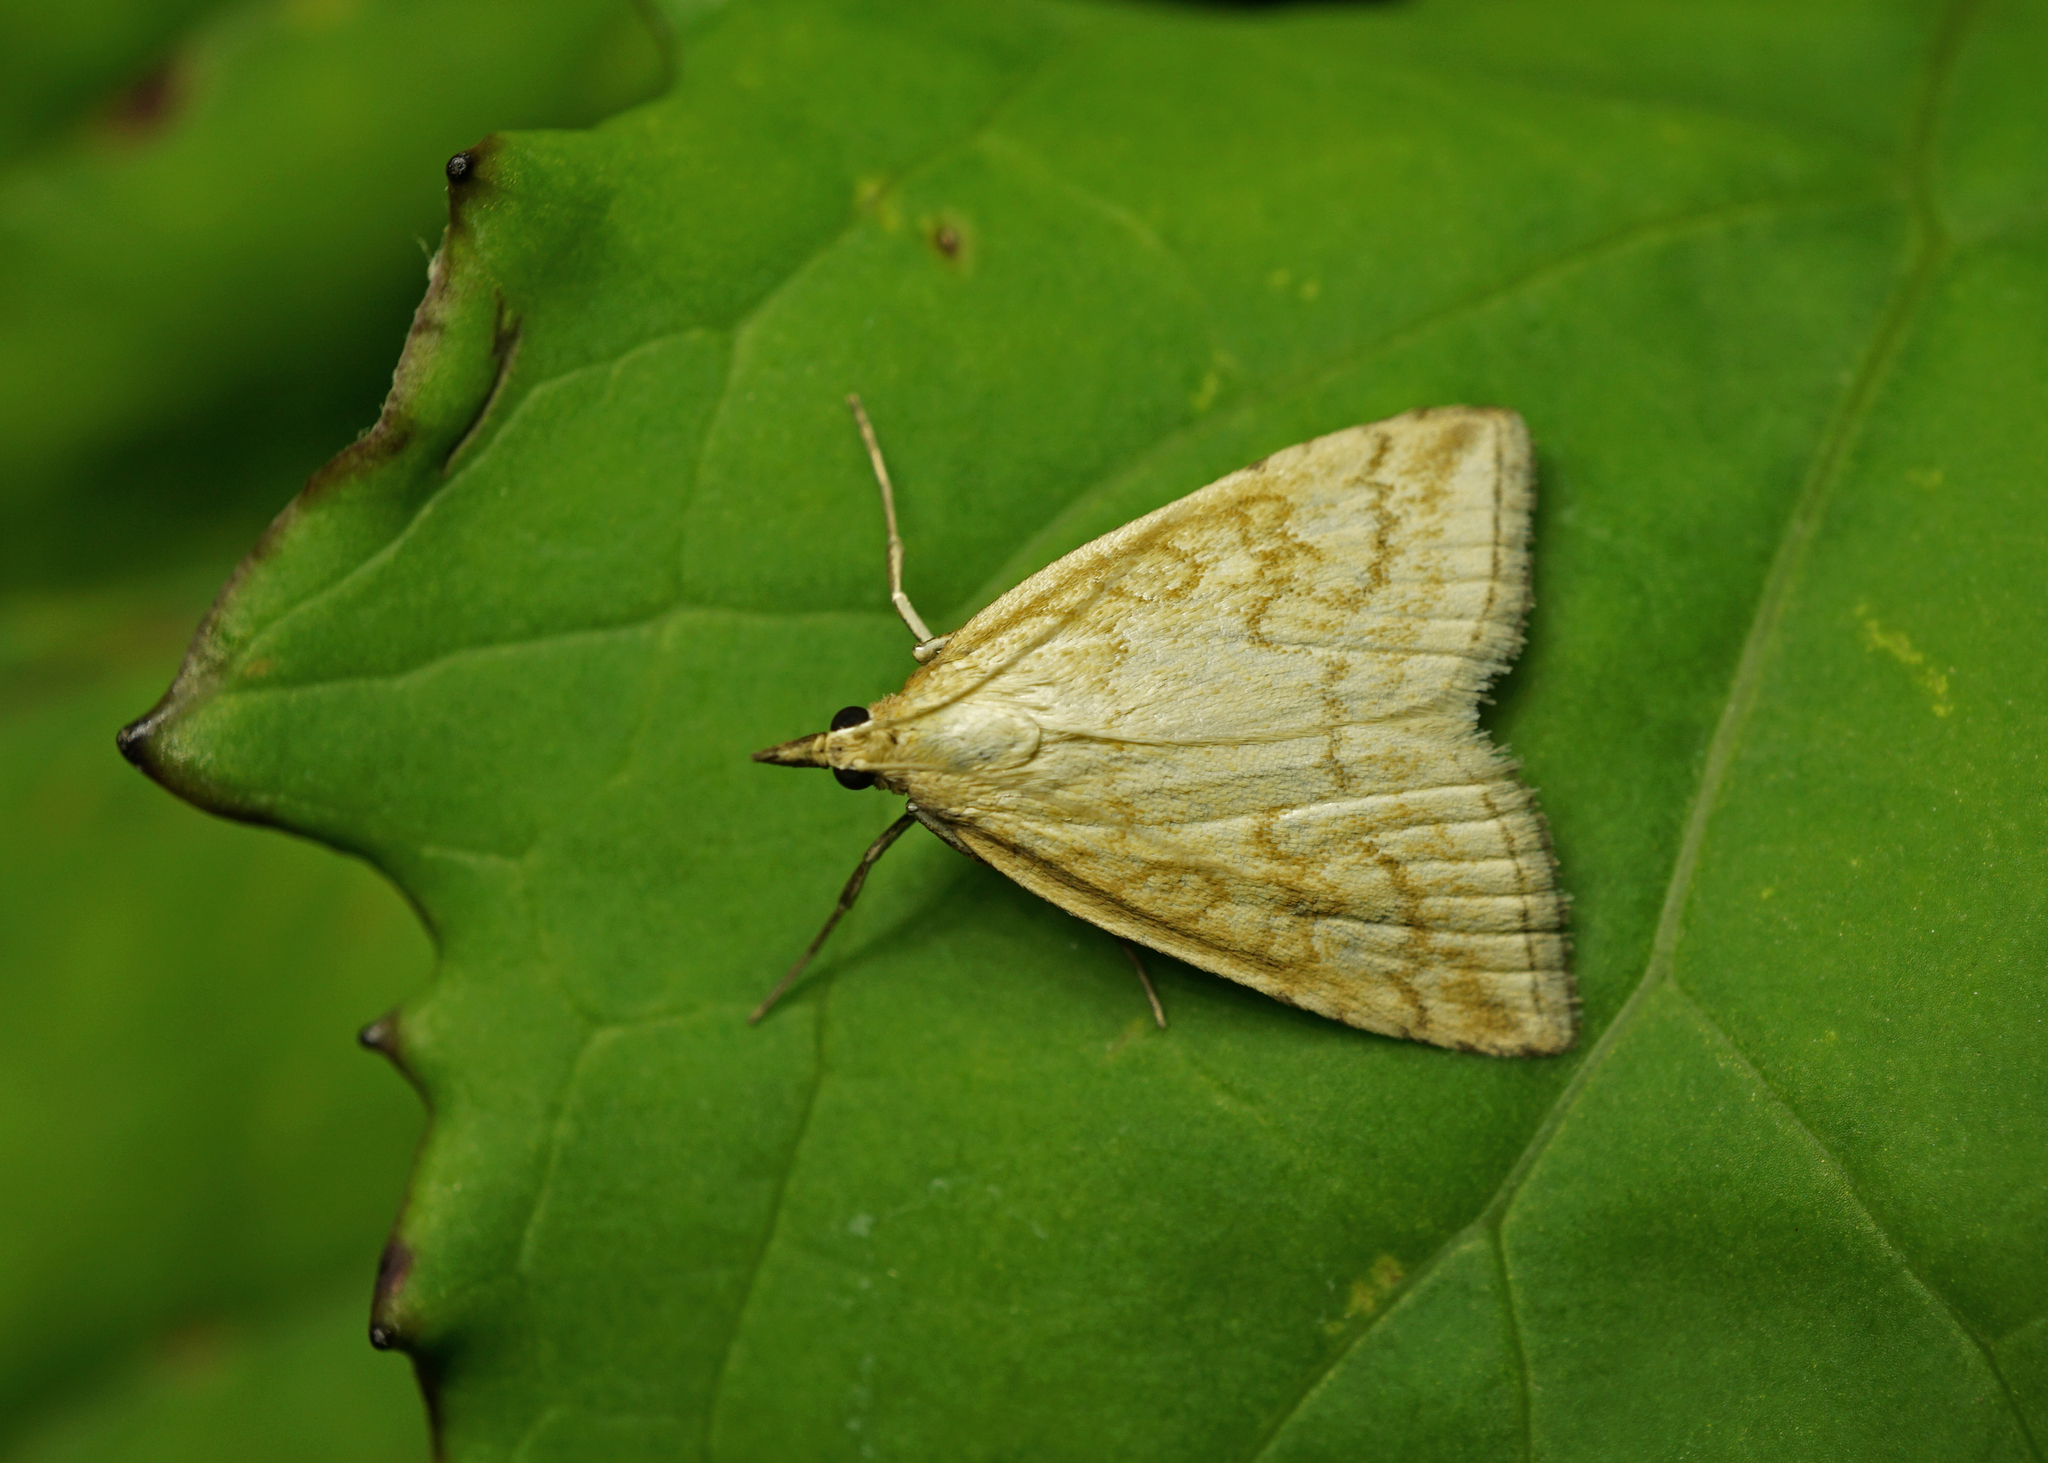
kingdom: Animalia
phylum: Arthropoda
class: Insecta
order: Lepidoptera
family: Crambidae
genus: Udea
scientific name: Udea lutealis
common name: Pale straw pearl
